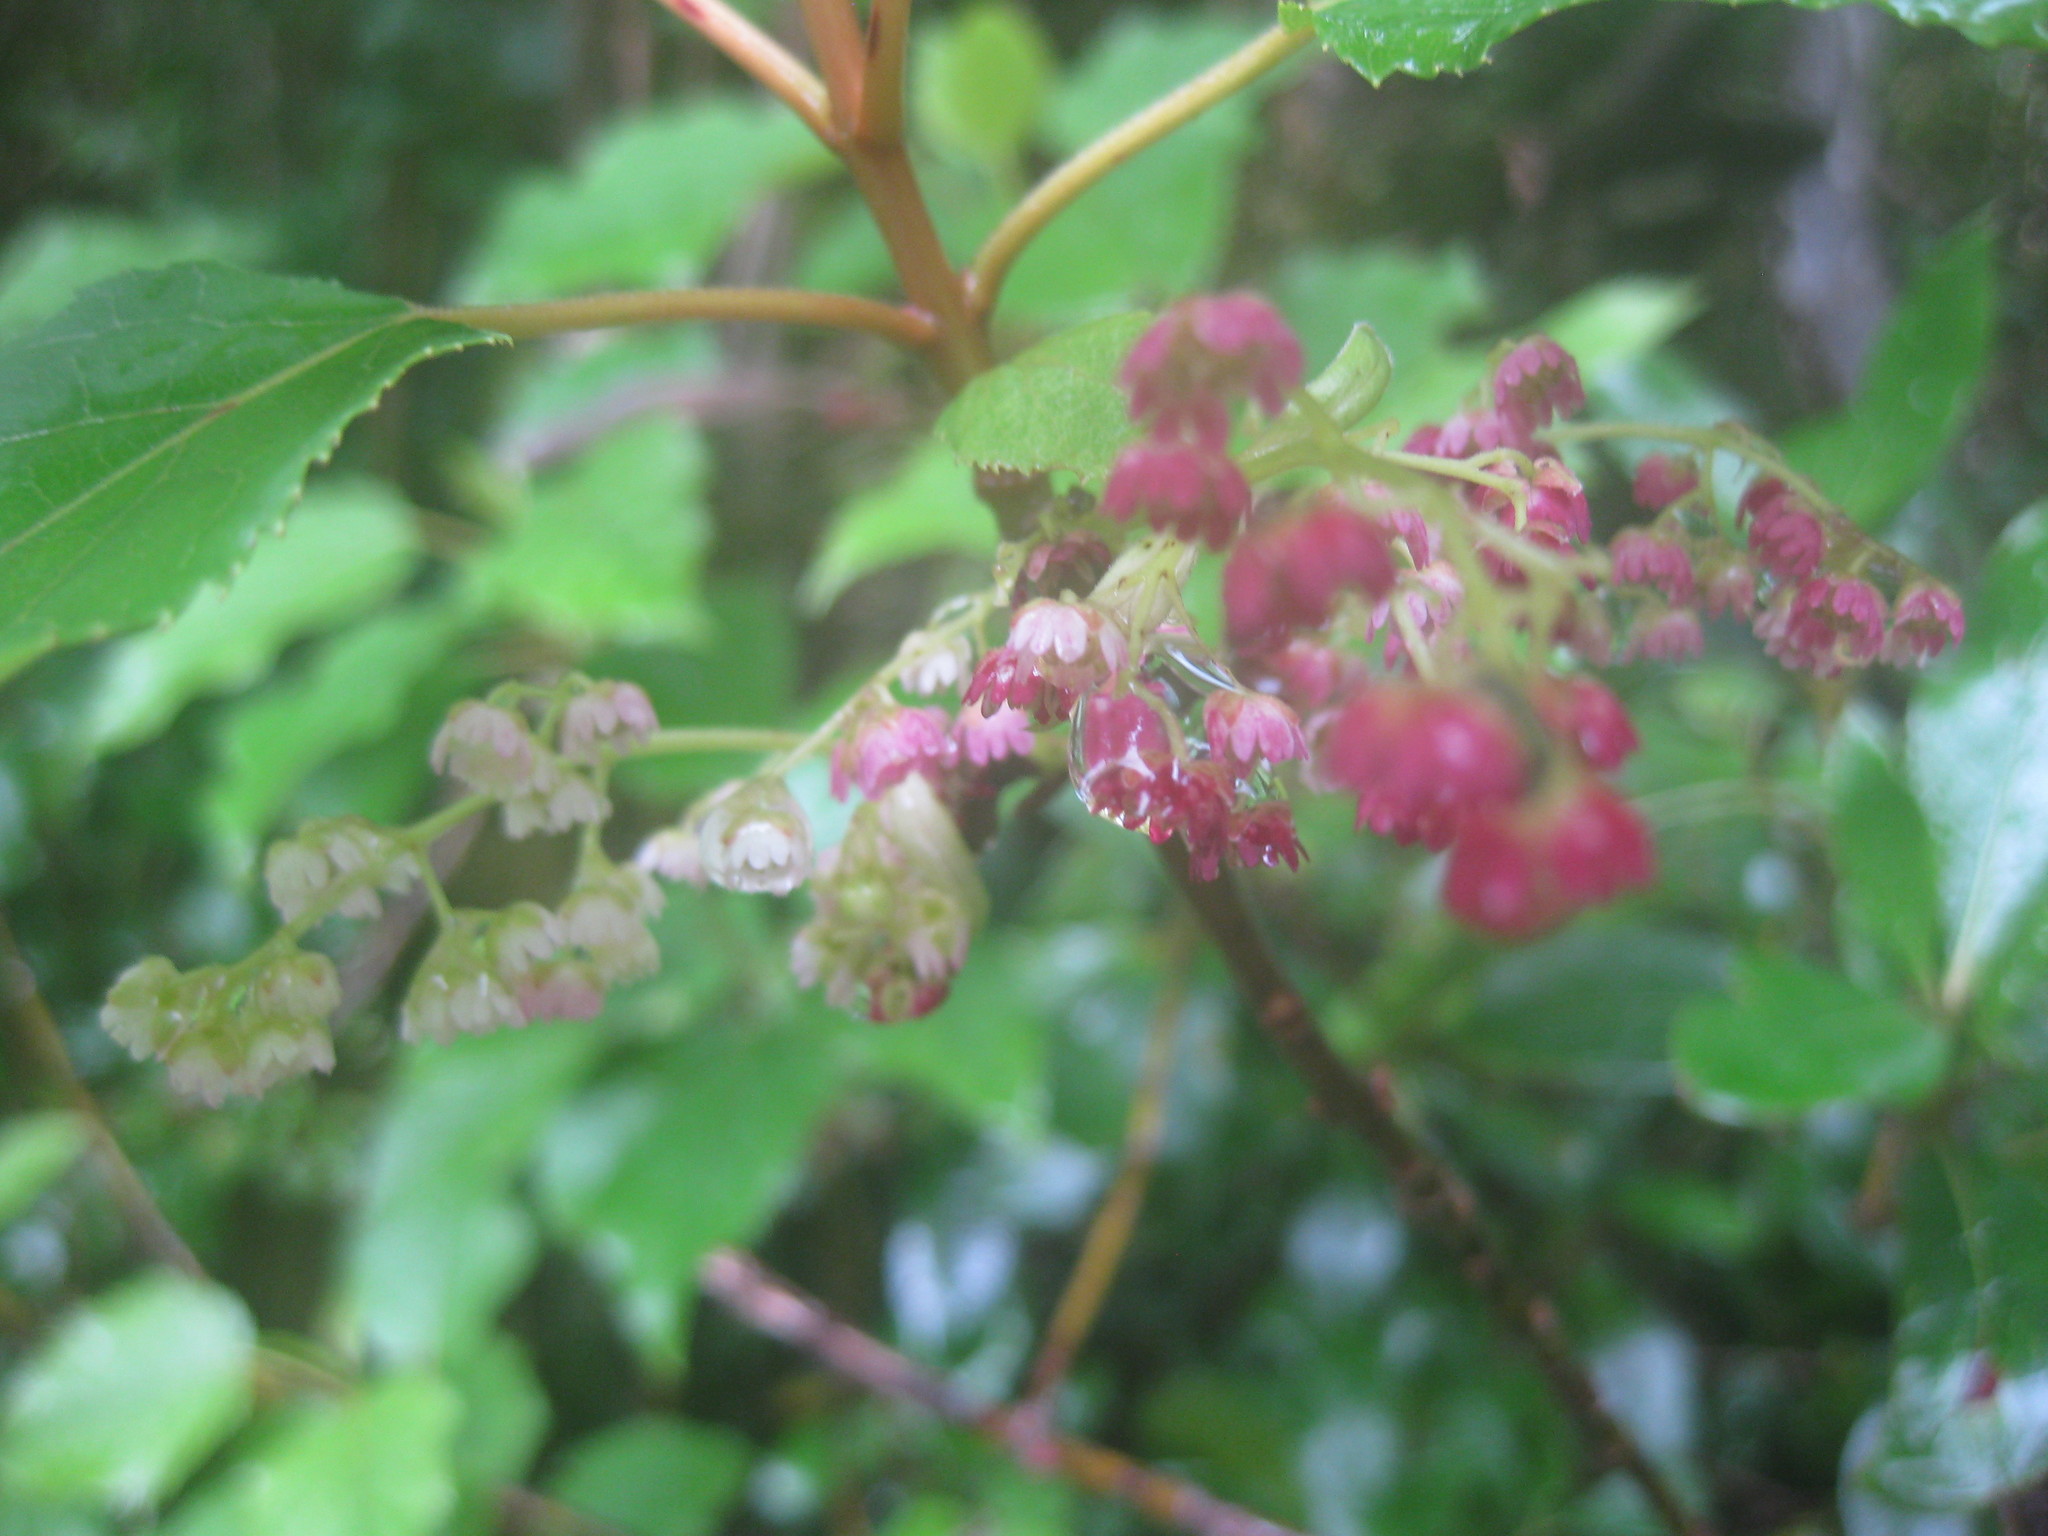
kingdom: Plantae
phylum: Tracheophyta
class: Magnoliopsida
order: Oxalidales
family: Elaeocarpaceae
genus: Aristotelia
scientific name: Aristotelia serrata
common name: New zealand wineberry
